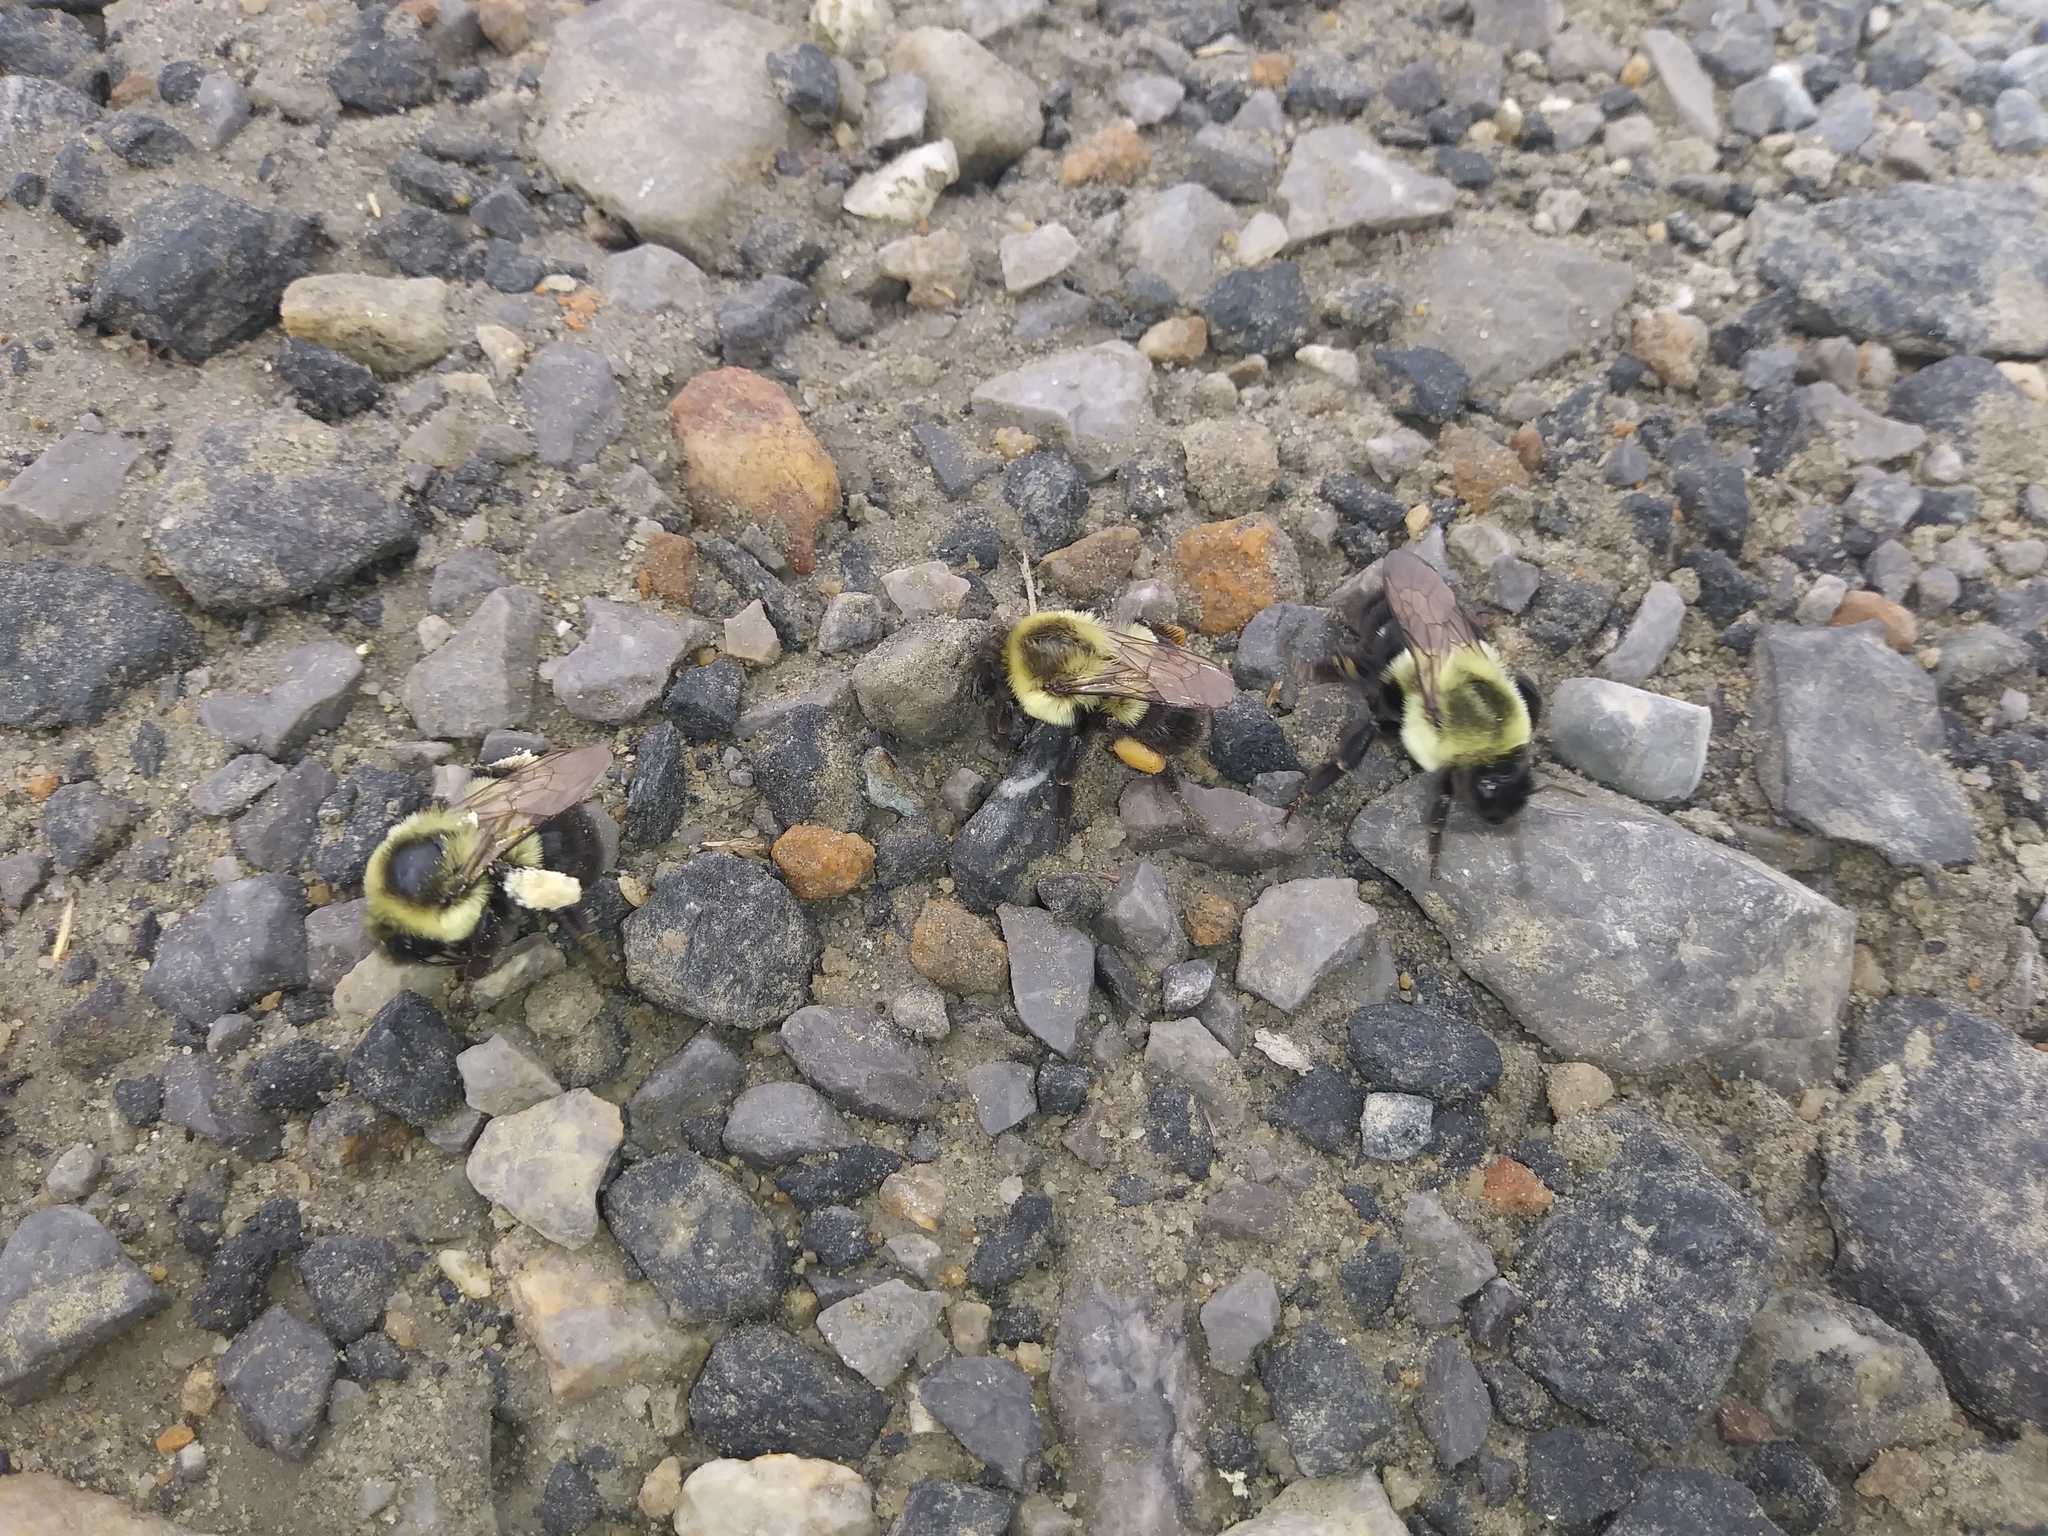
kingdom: Animalia
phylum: Arthropoda
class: Insecta
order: Hymenoptera
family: Apidae
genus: Bombus
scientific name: Bombus impatiens
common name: Common eastern bumble bee
